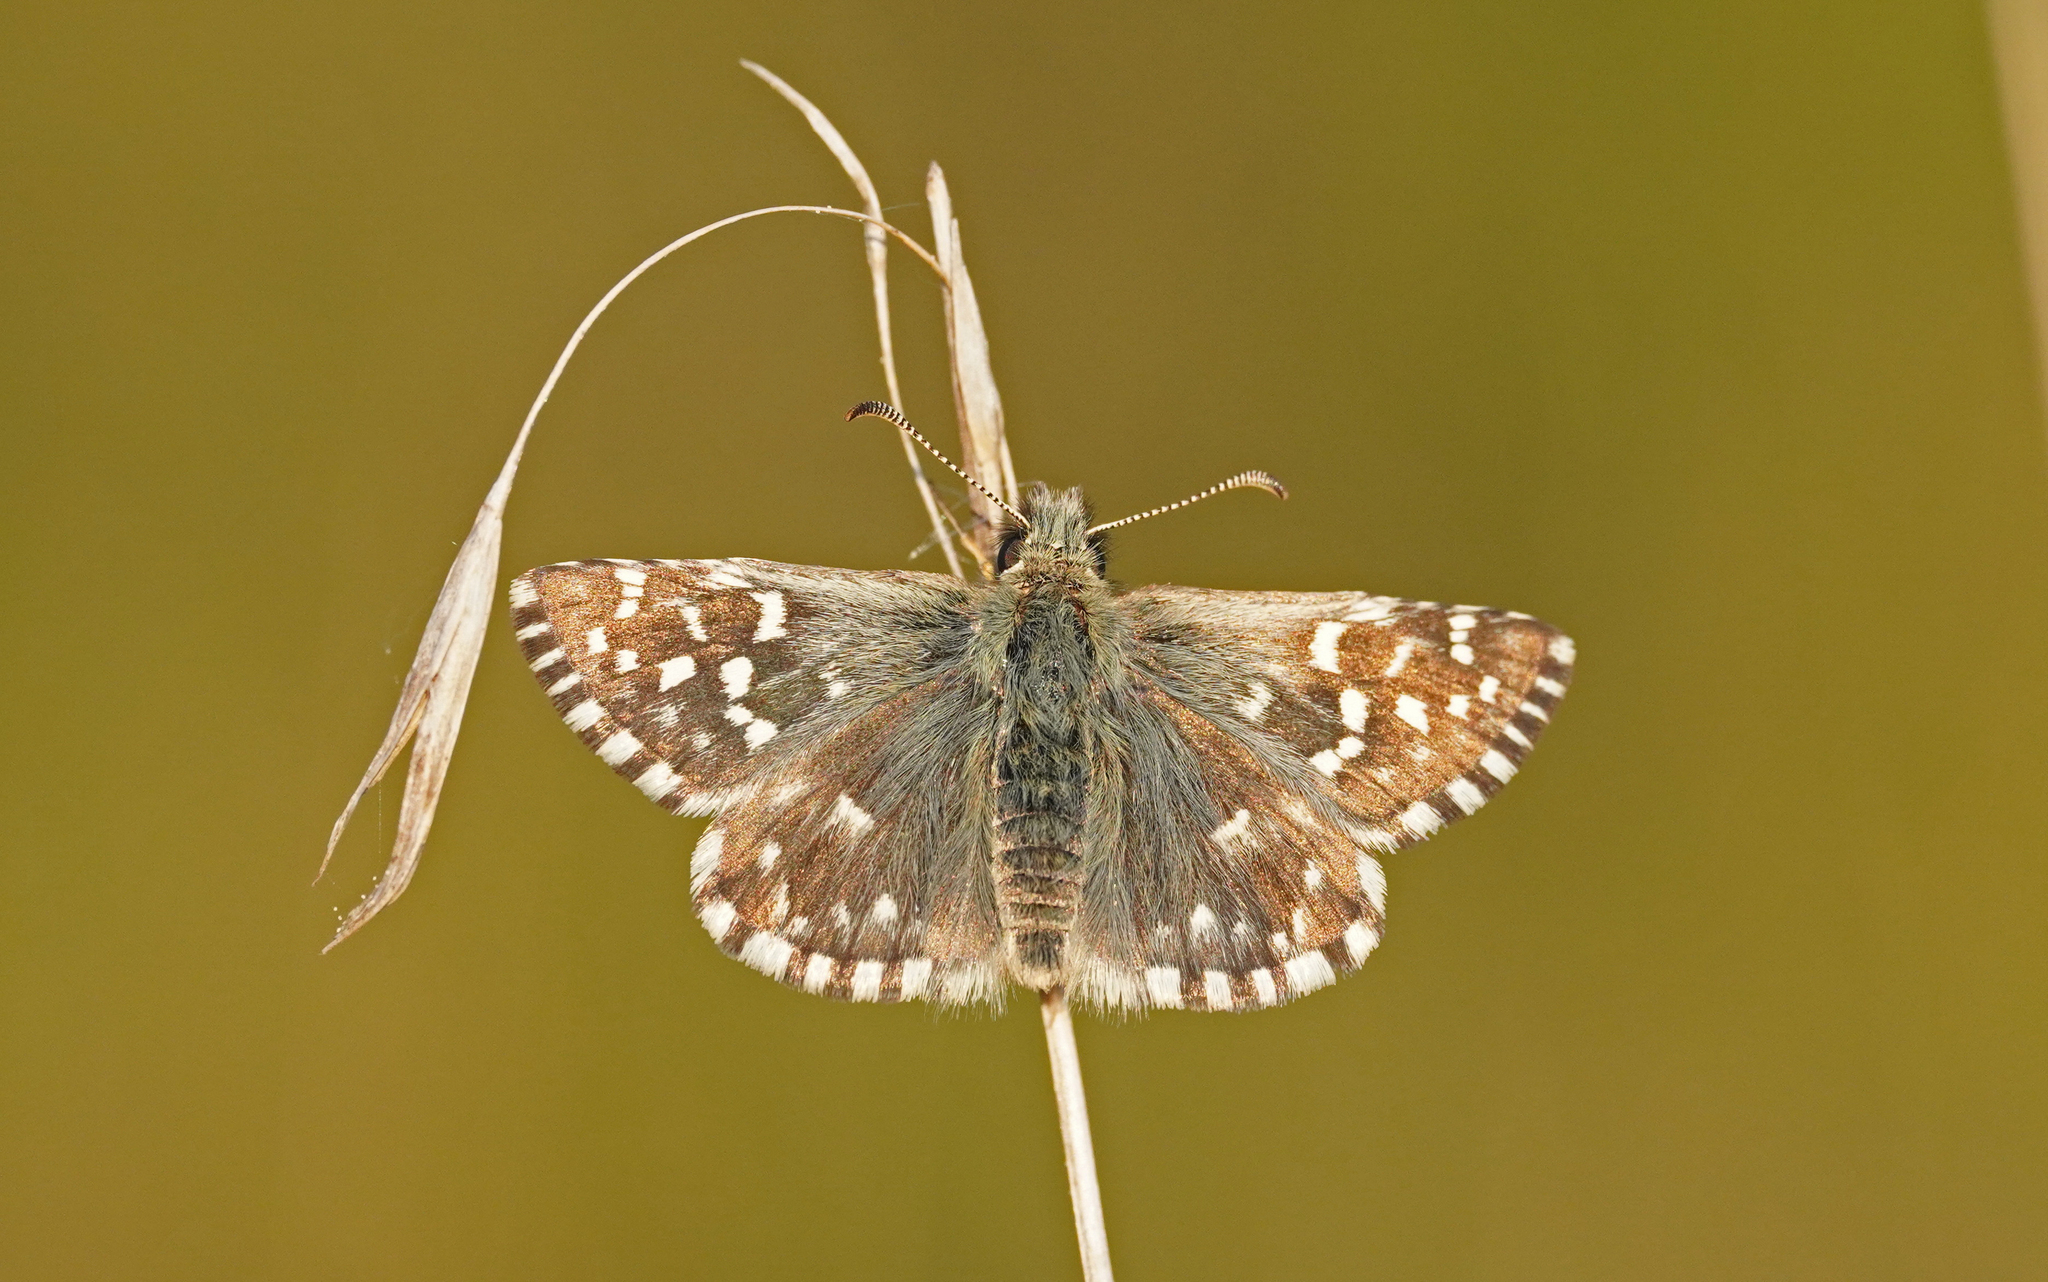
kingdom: Animalia
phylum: Arthropoda
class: Insecta
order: Lepidoptera
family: Hesperiidae
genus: Pyrgus
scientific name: Pyrgus malvae
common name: Grizzled skipper
